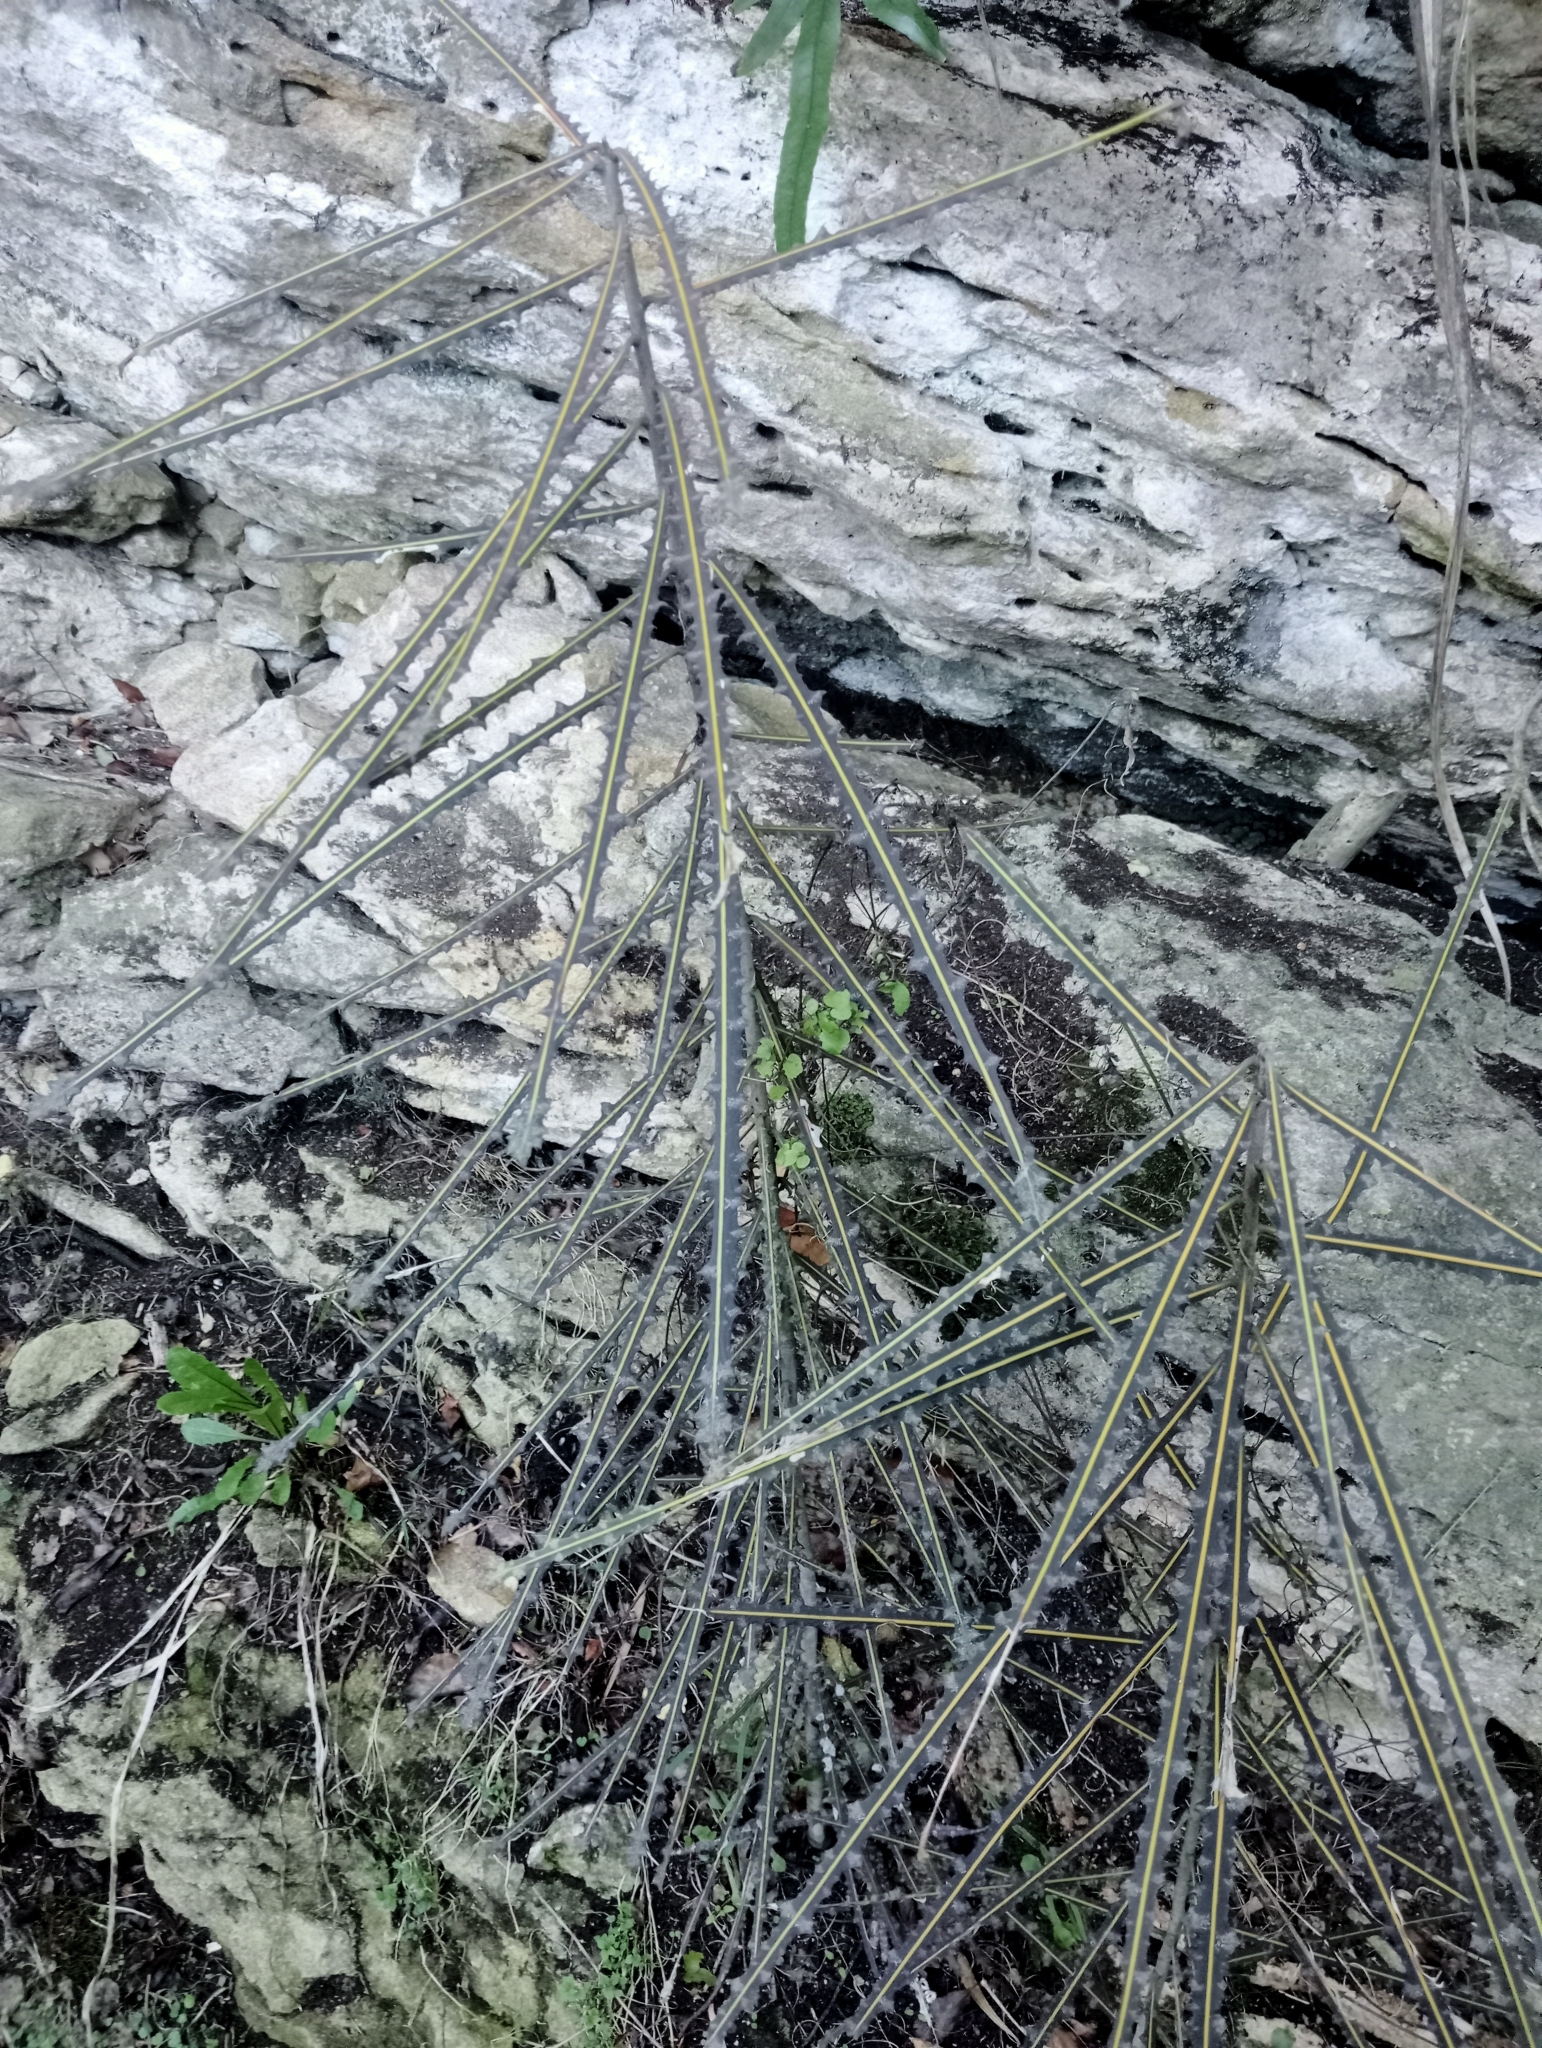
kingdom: Plantae
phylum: Tracheophyta
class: Magnoliopsida
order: Apiales
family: Araliaceae
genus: Pseudopanax
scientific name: Pseudopanax ferox
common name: Fierce lancewood
